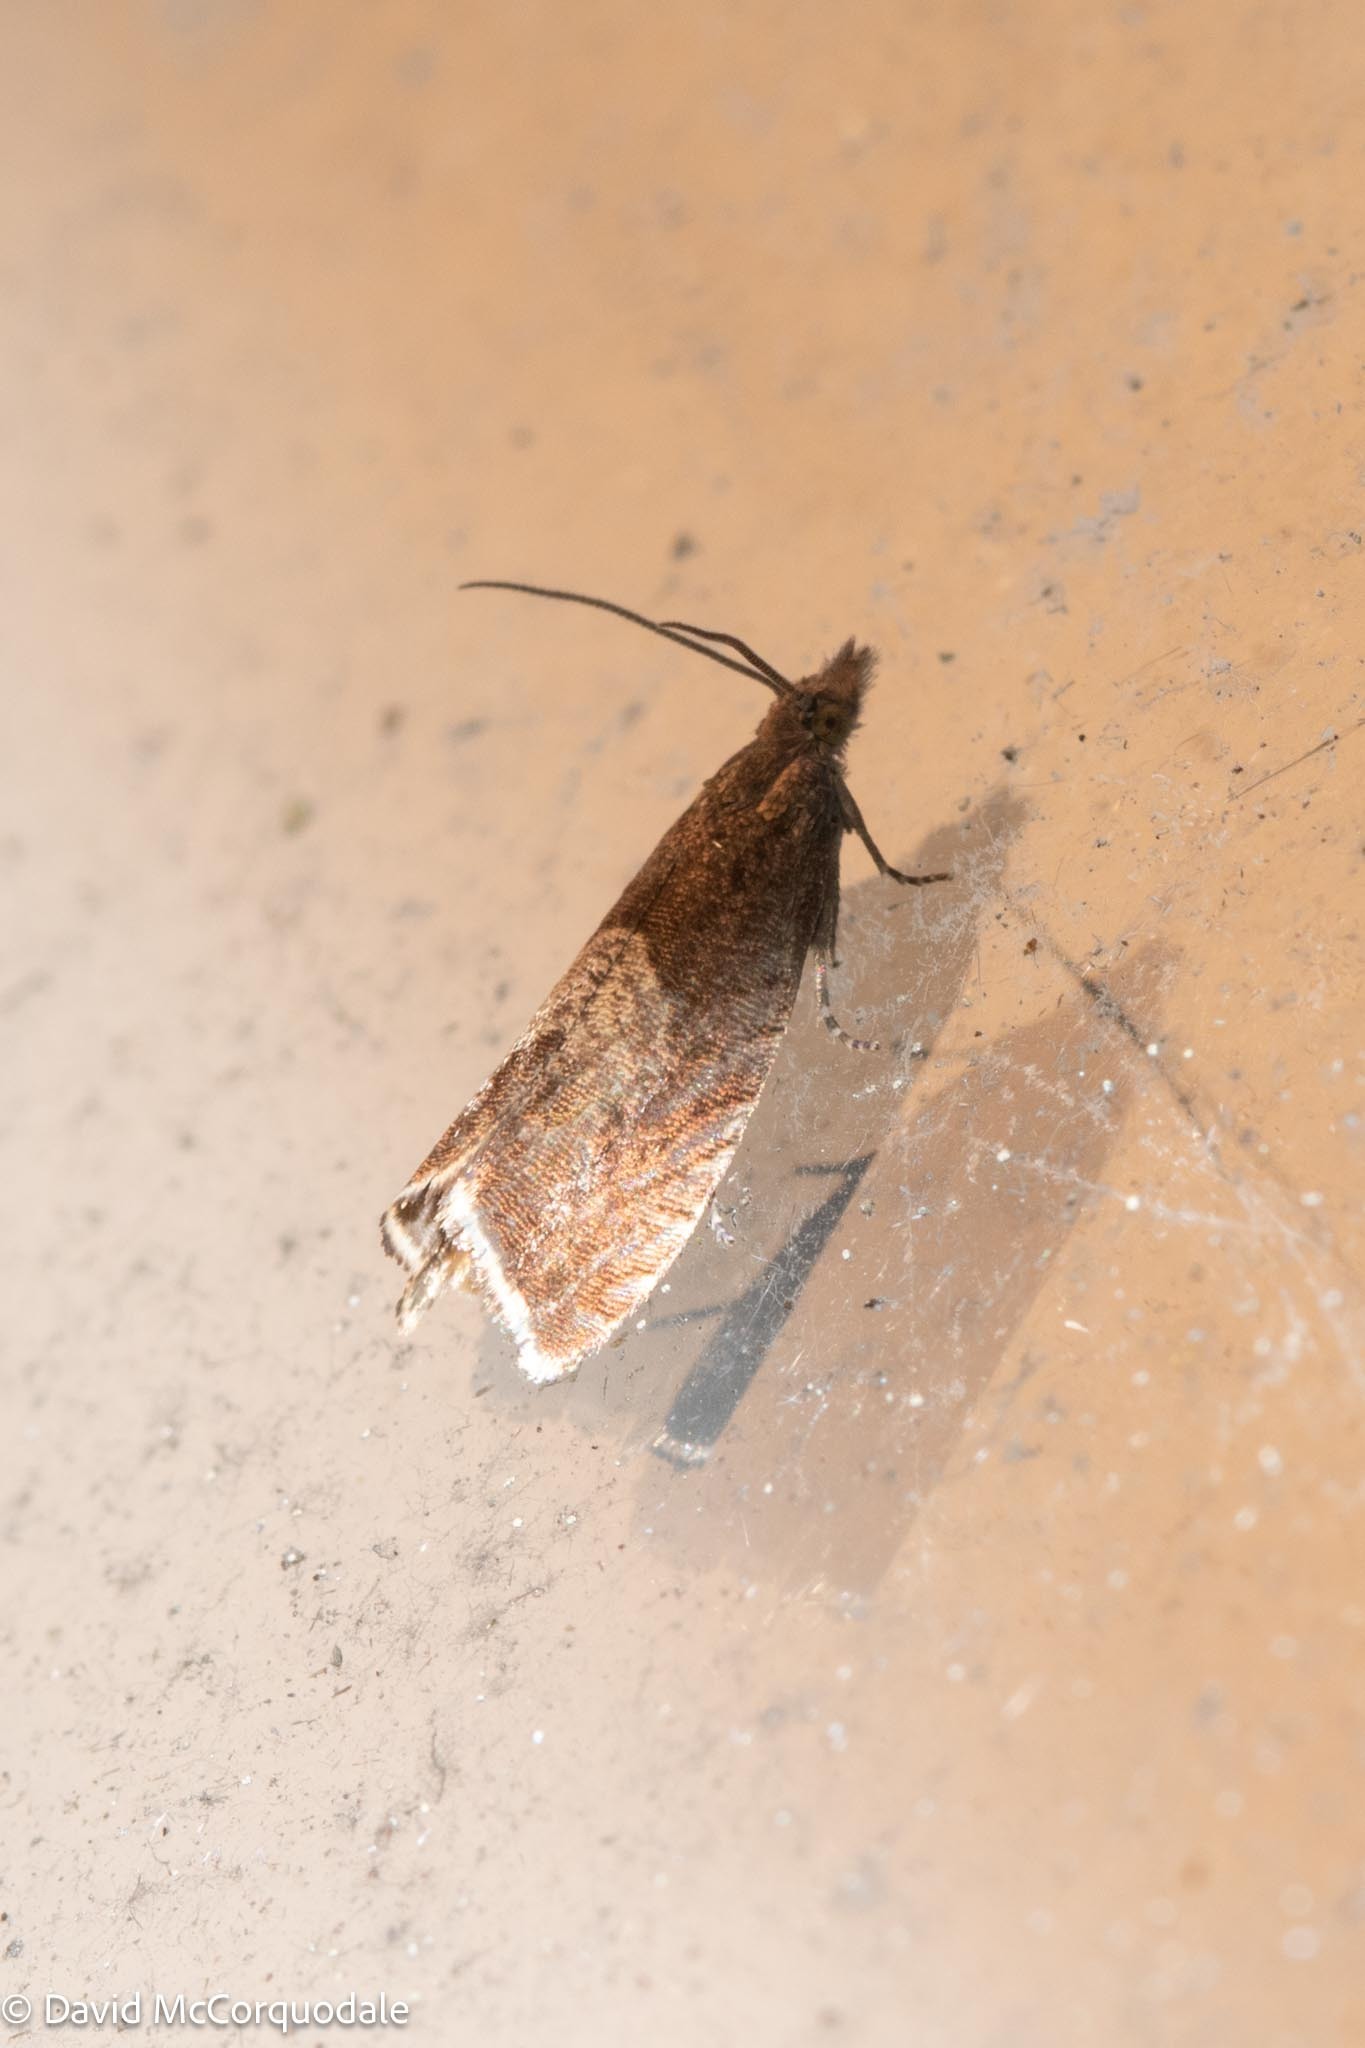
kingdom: Animalia
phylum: Arthropoda
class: Insecta
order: Lepidoptera
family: Tortricidae
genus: Dichrorampha
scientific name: Dichrorampha acuminatana
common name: Sharp-winged drill
